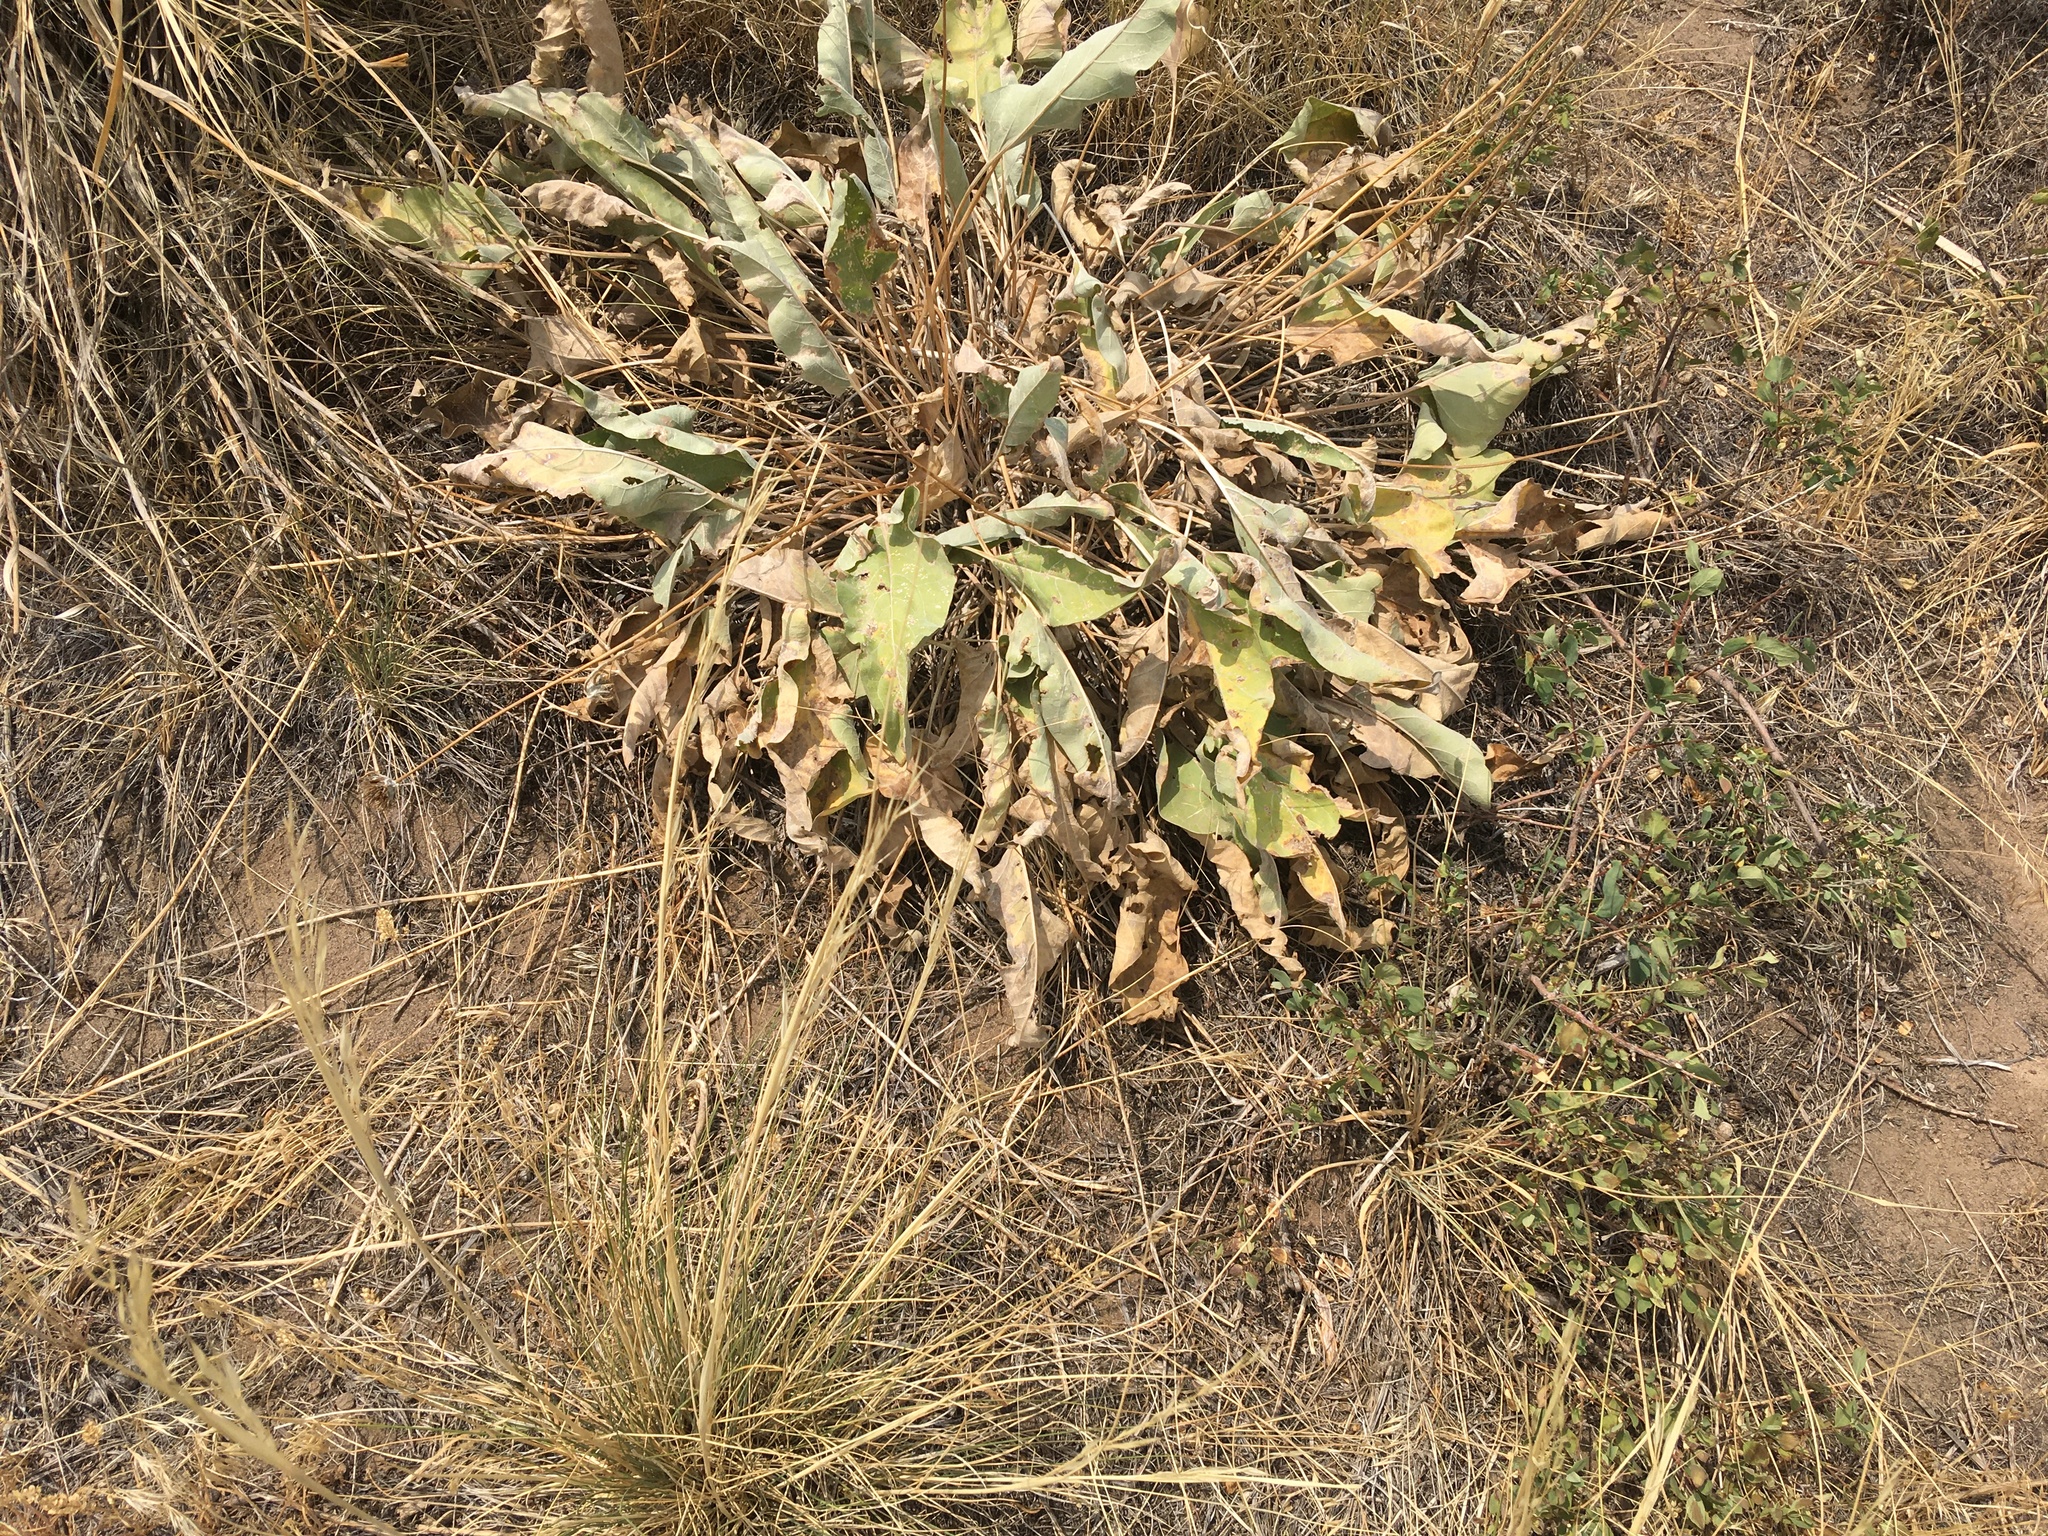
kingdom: Plantae
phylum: Tracheophyta
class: Magnoliopsida
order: Asterales
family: Asteraceae
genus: Wyethia
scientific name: Wyethia sagittata
